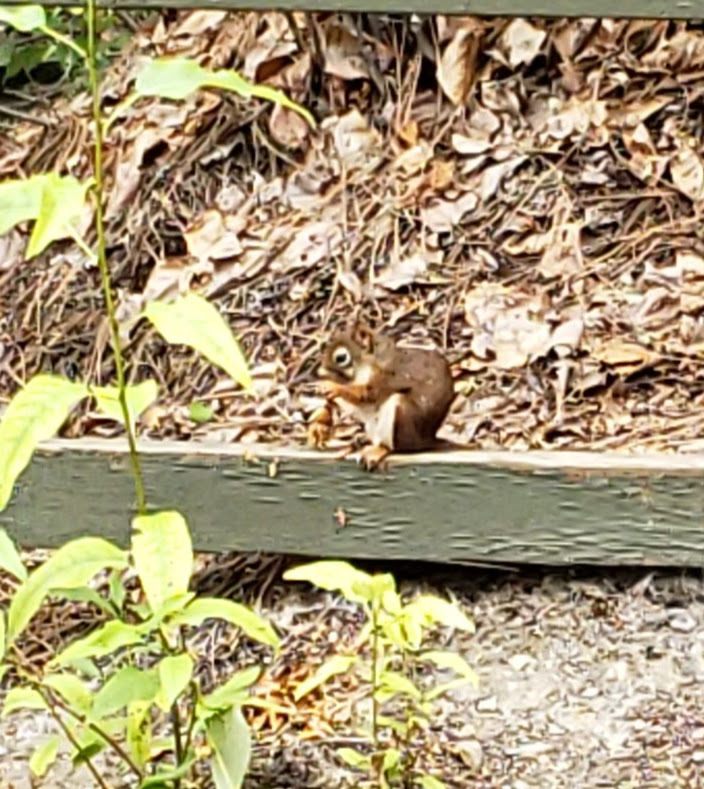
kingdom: Animalia
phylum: Chordata
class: Mammalia
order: Rodentia
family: Sciuridae
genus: Tamiasciurus
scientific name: Tamiasciurus hudsonicus
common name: Red squirrel
